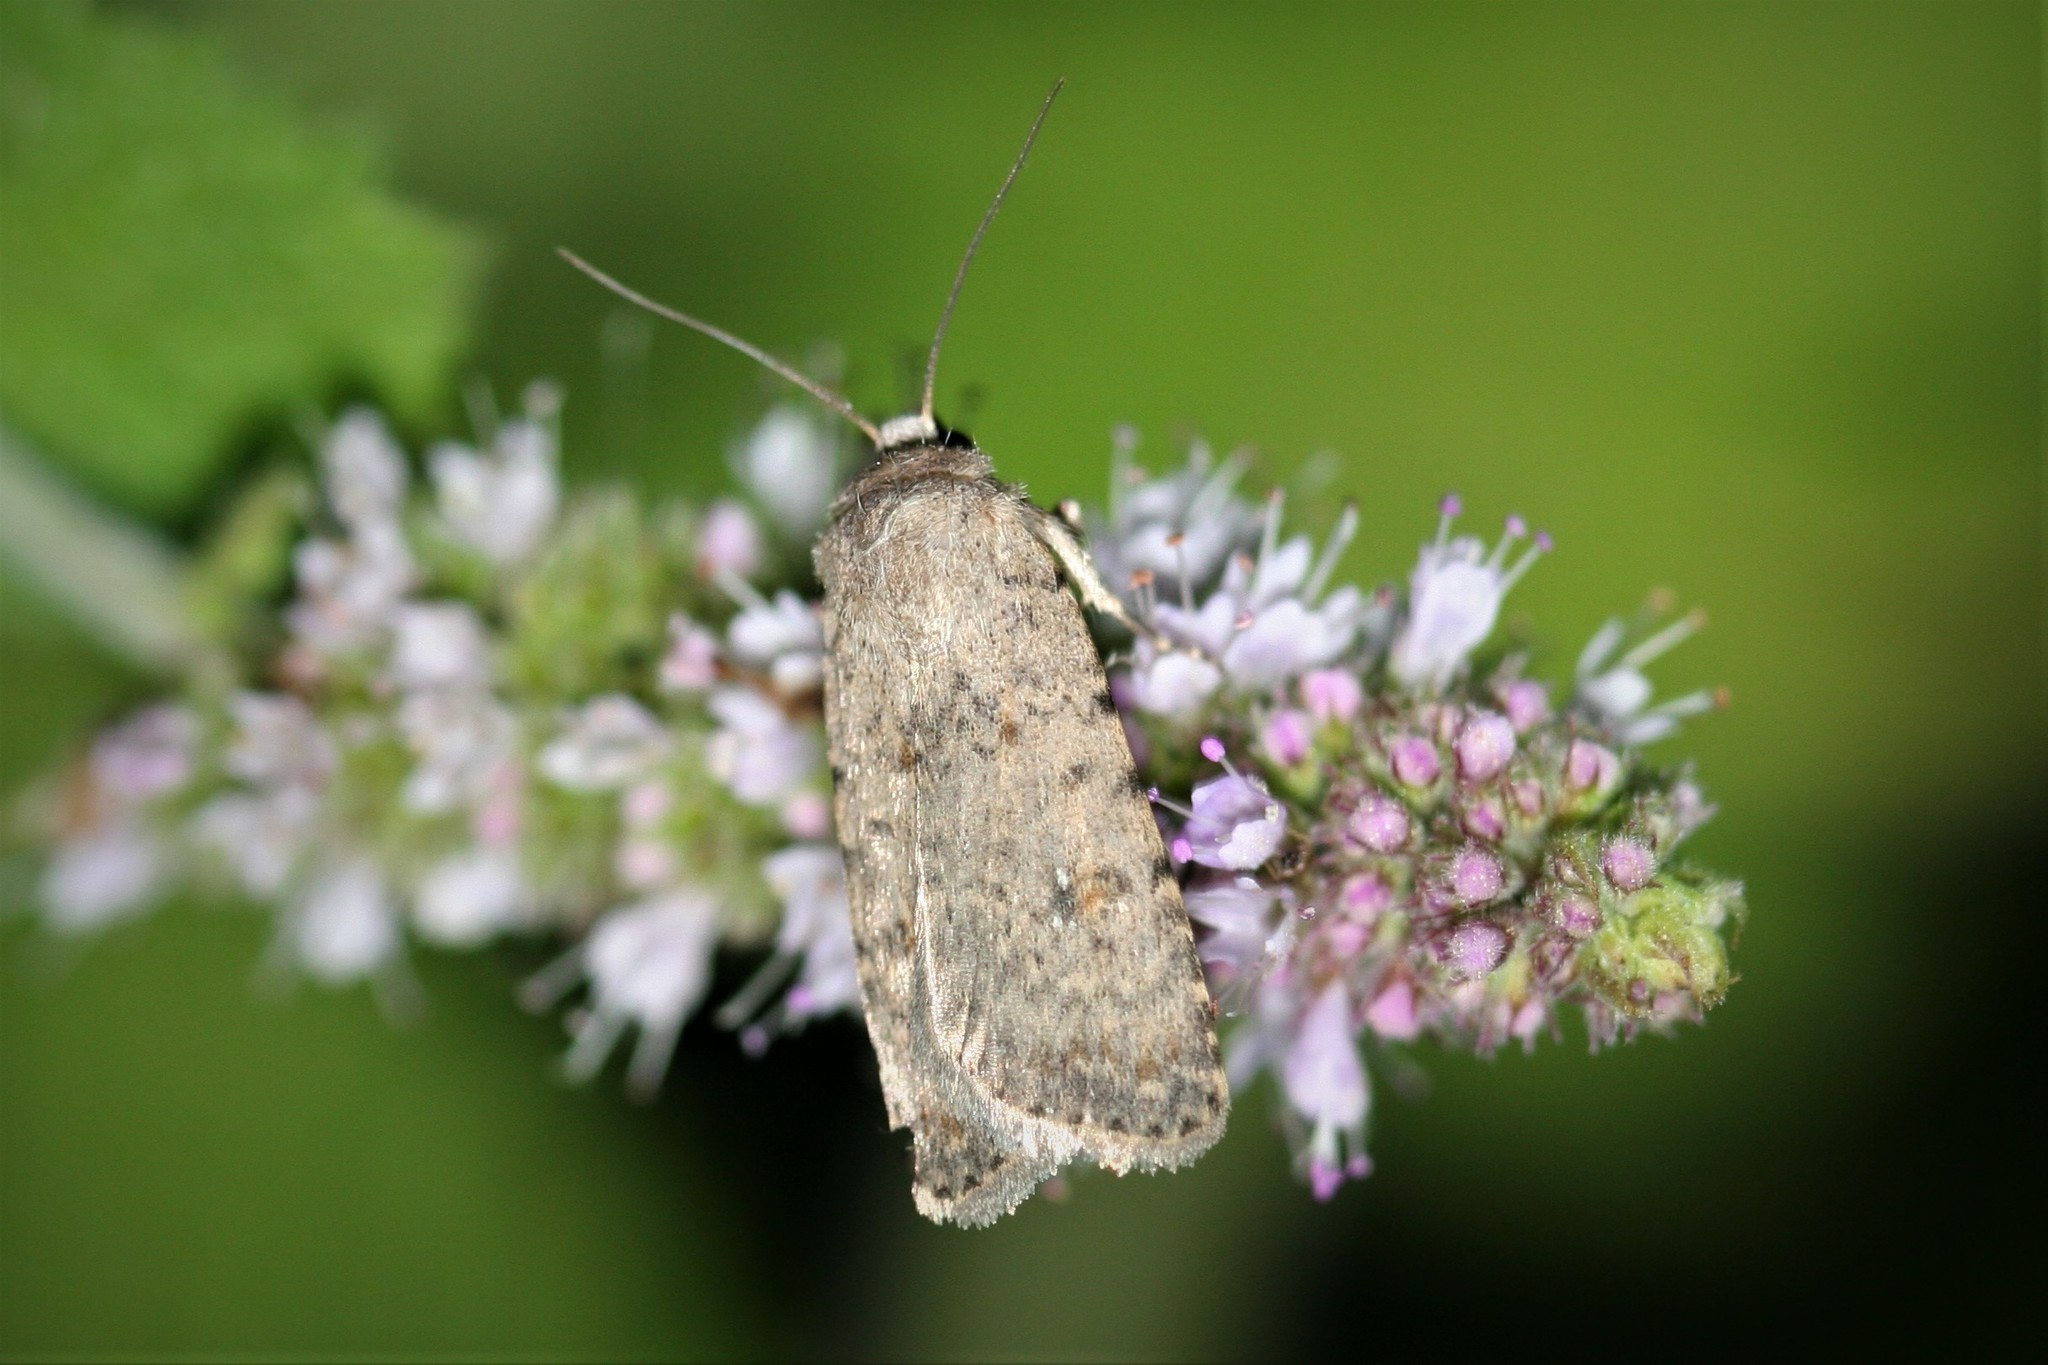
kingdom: Animalia
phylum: Arthropoda
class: Insecta
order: Lepidoptera
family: Noctuidae
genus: Caradrina
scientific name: Caradrina clavipalpis
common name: Pale mottled willow
